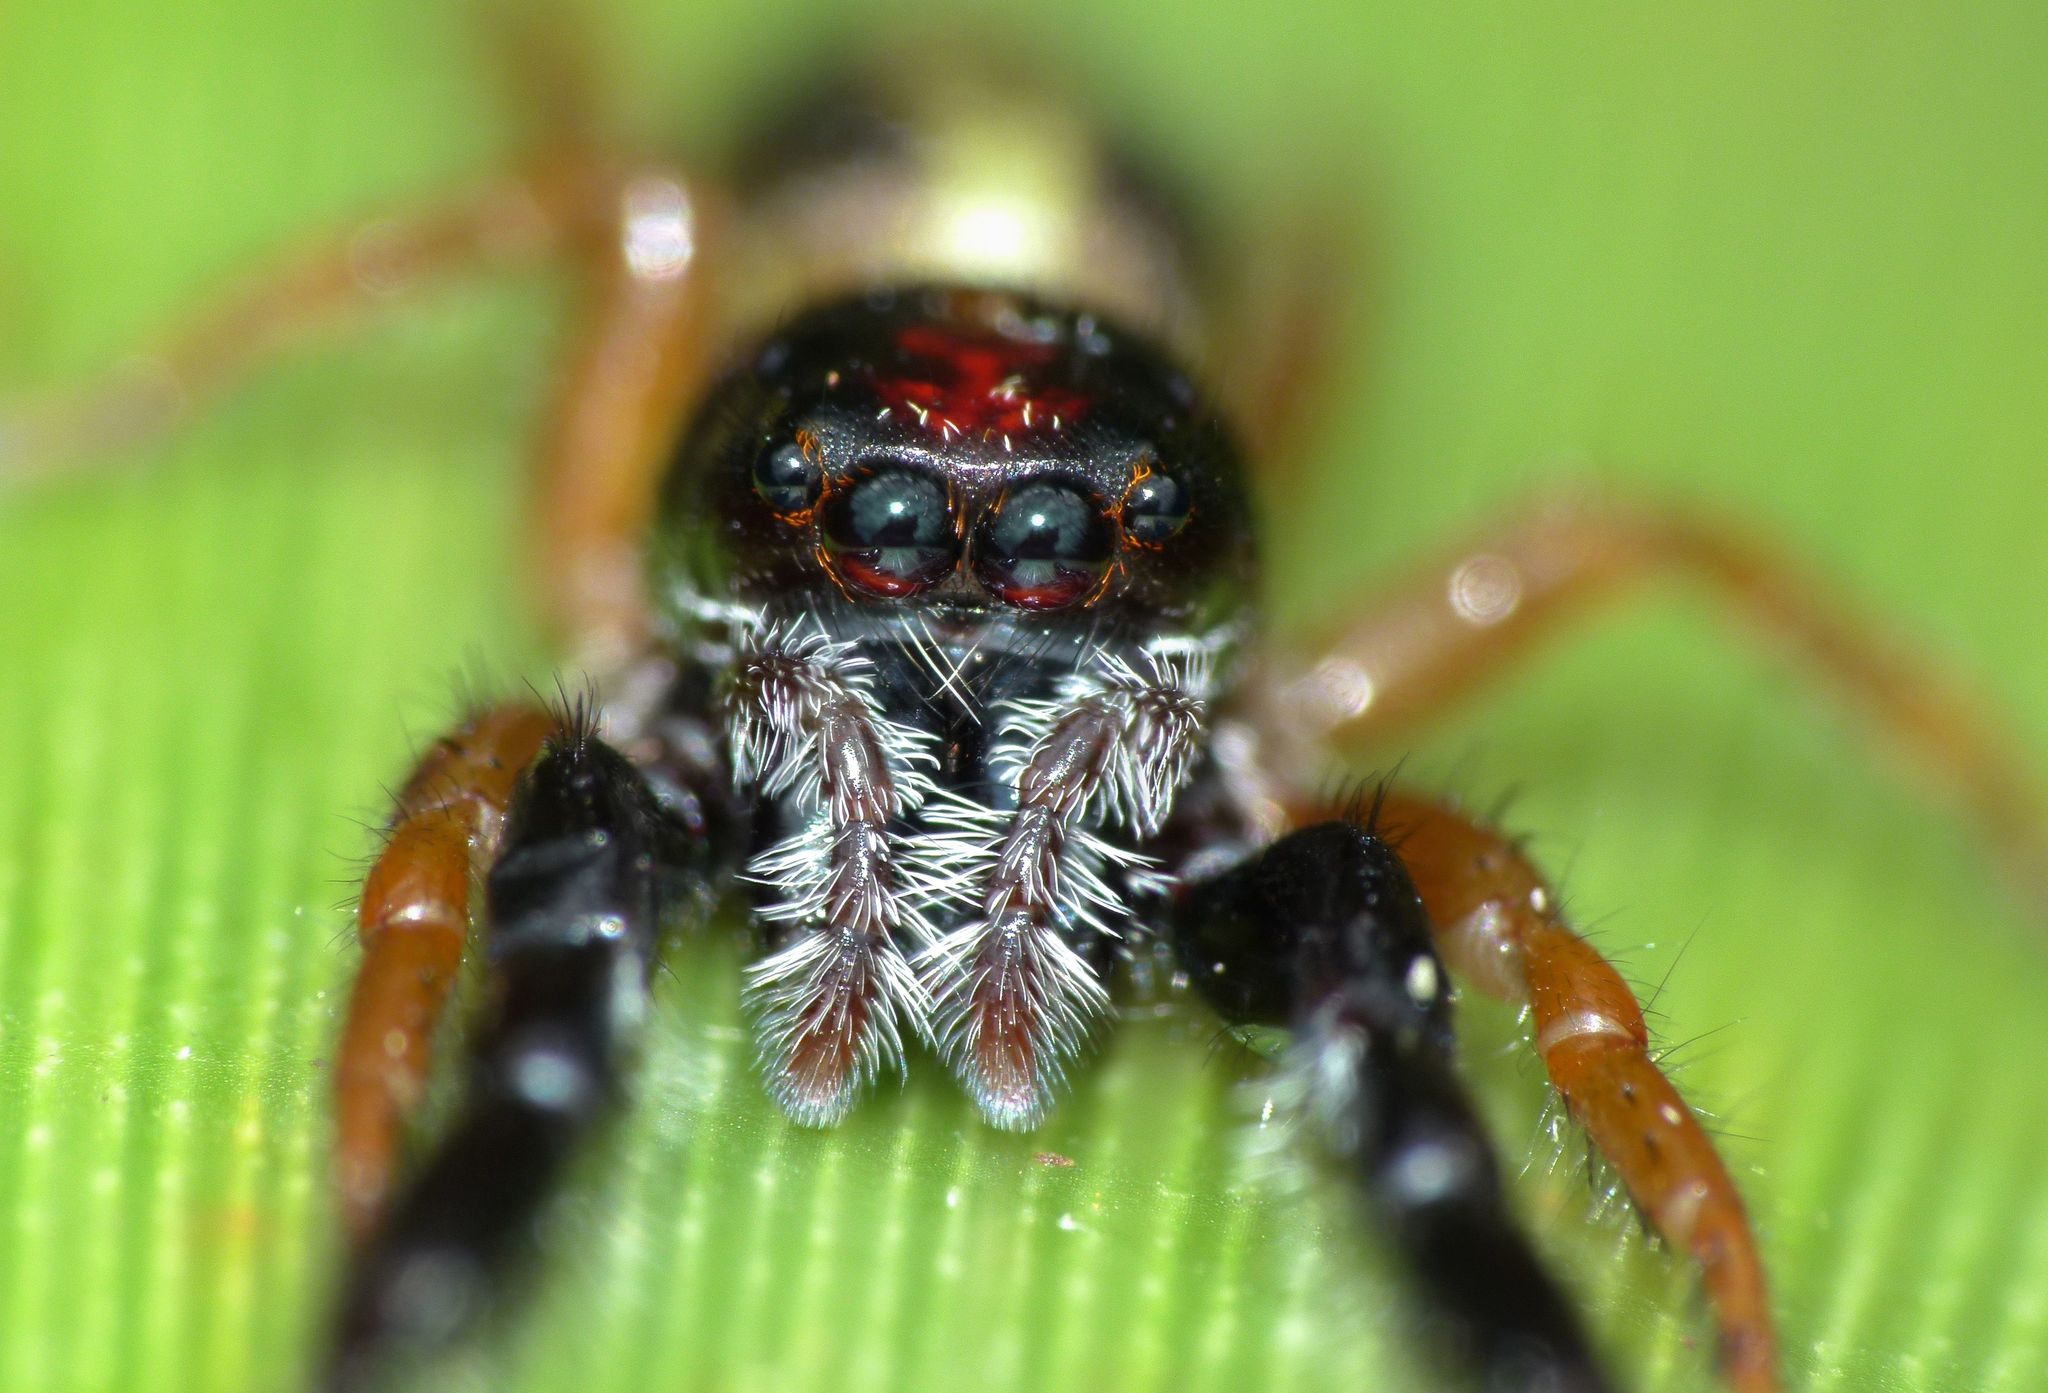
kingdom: Animalia
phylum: Arthropoda
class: Arachnida
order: Araneae
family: Salticidae
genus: Trite
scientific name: Trite planiceps
